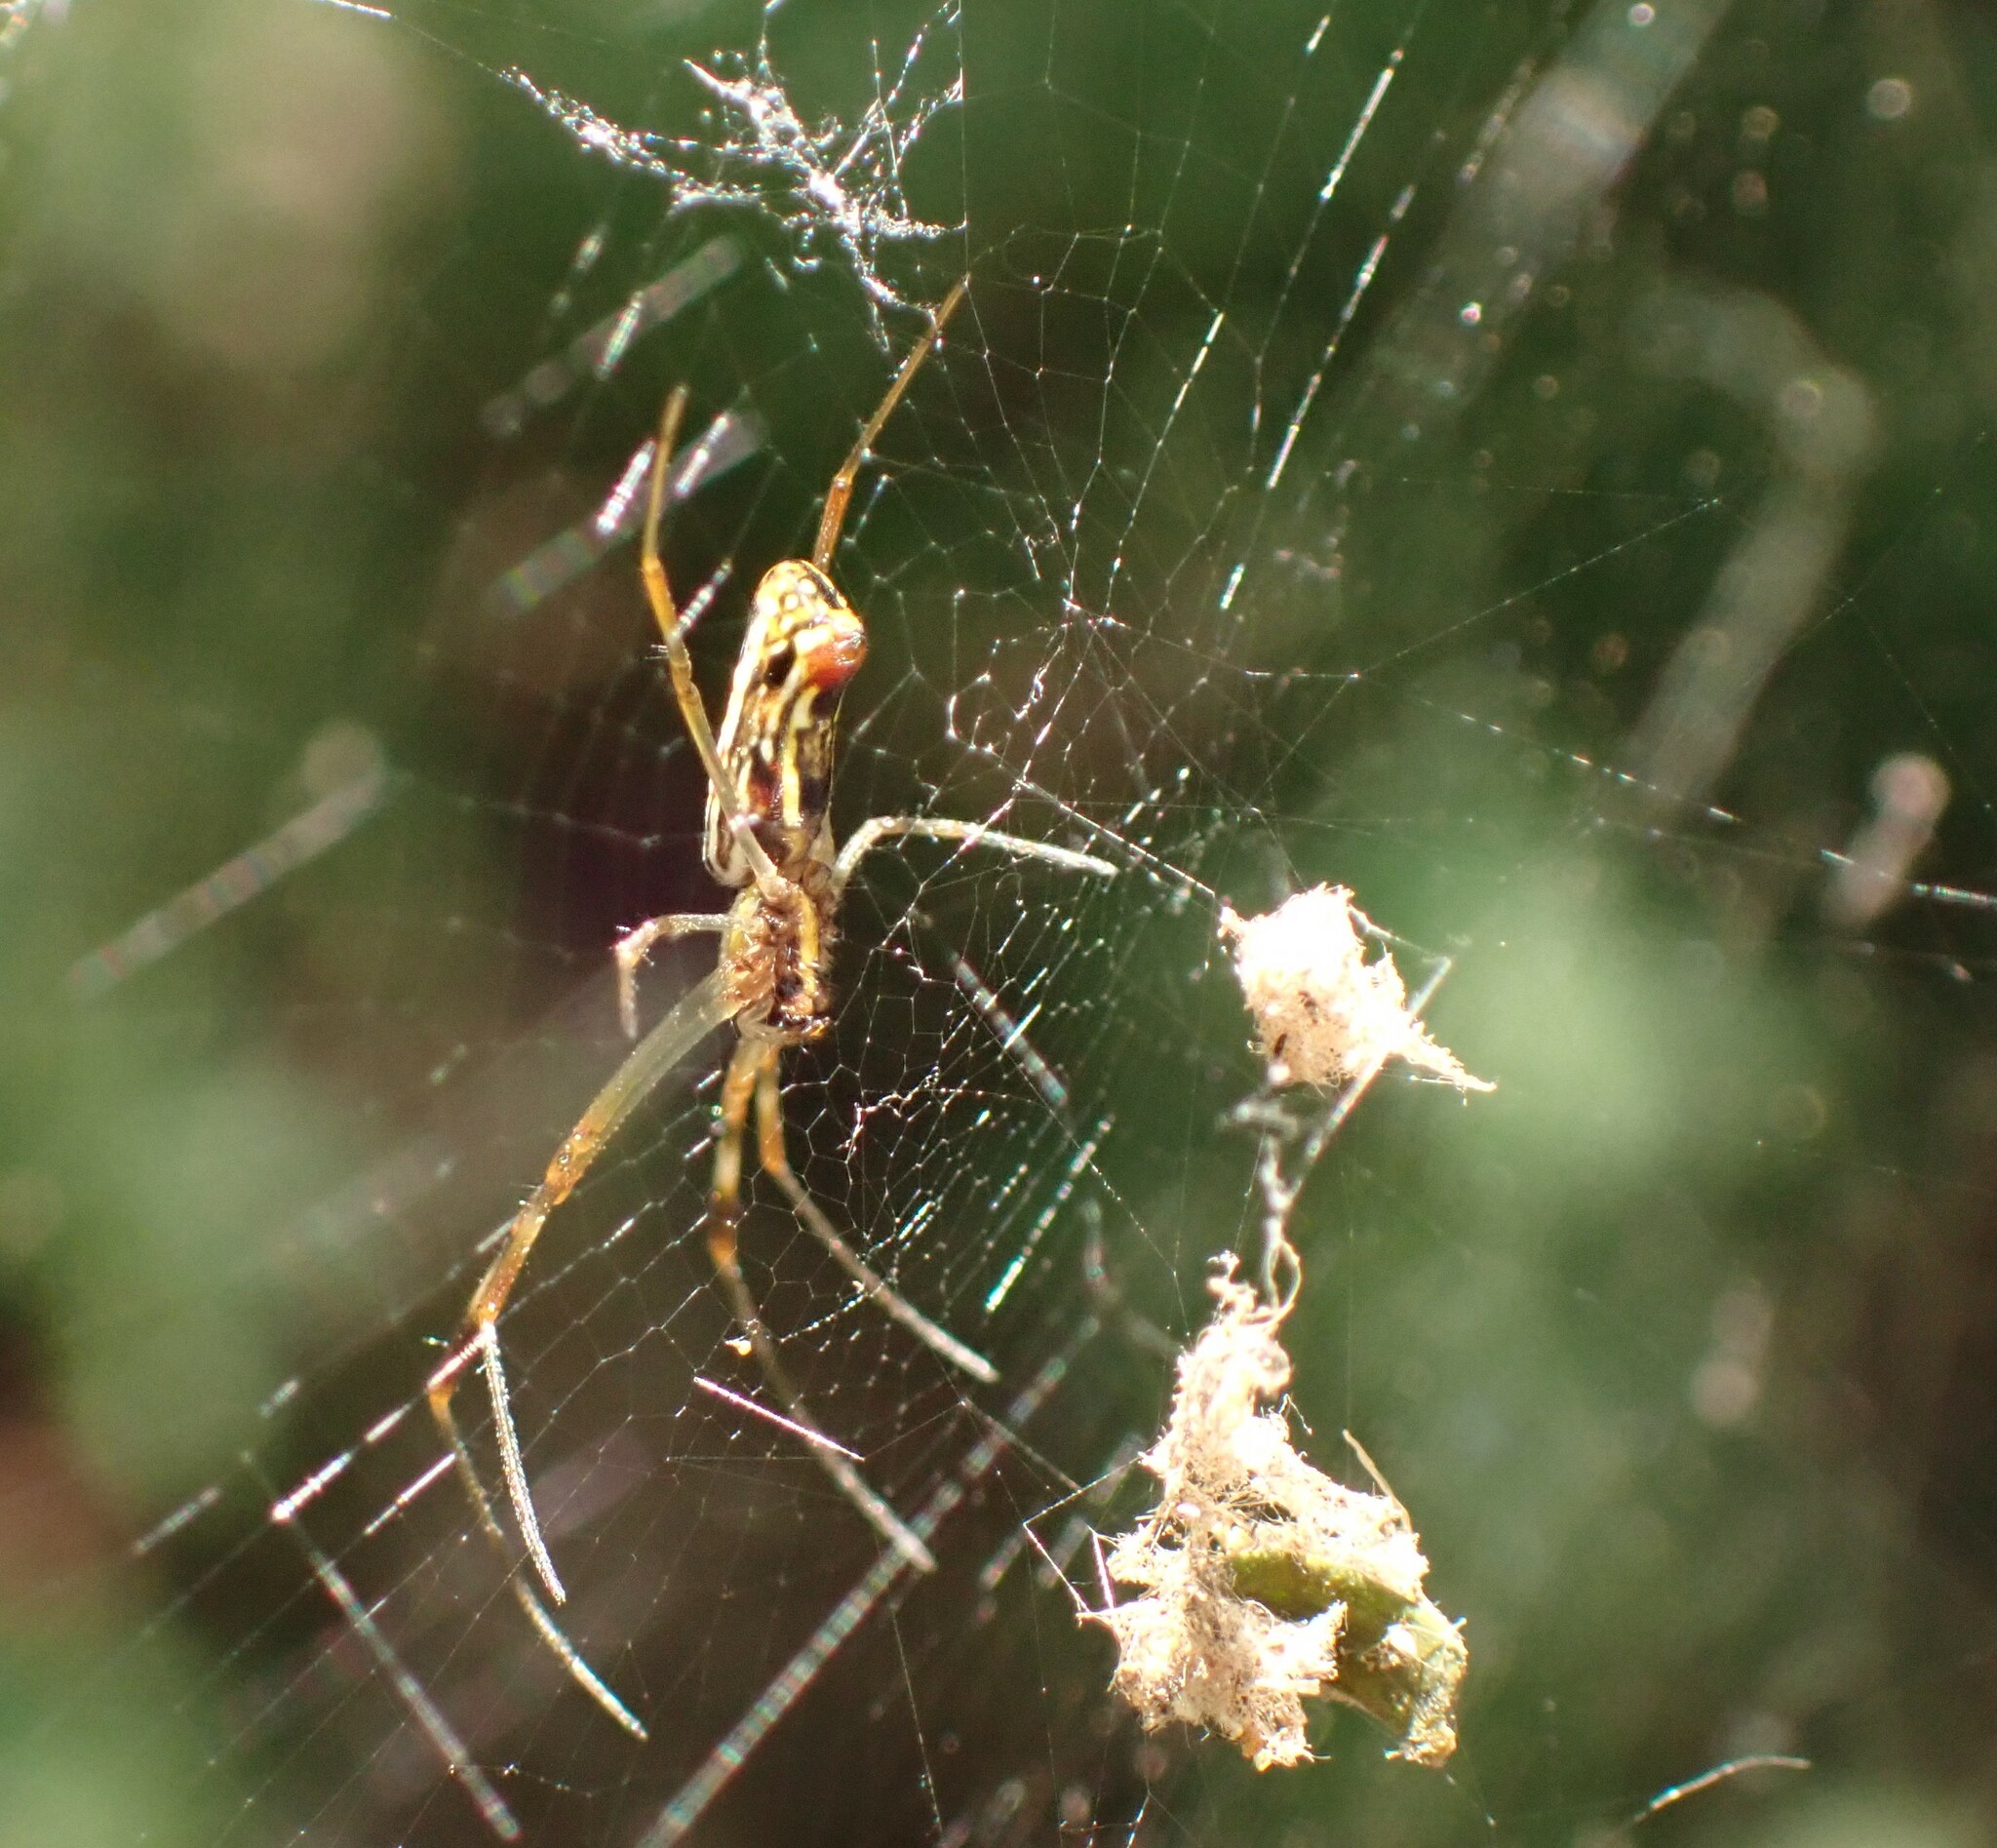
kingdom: Animalia
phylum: Arthropoda
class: Arachnida
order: Araneae
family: Araneidae
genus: Trichonephila
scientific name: Trichonephila clavipes
